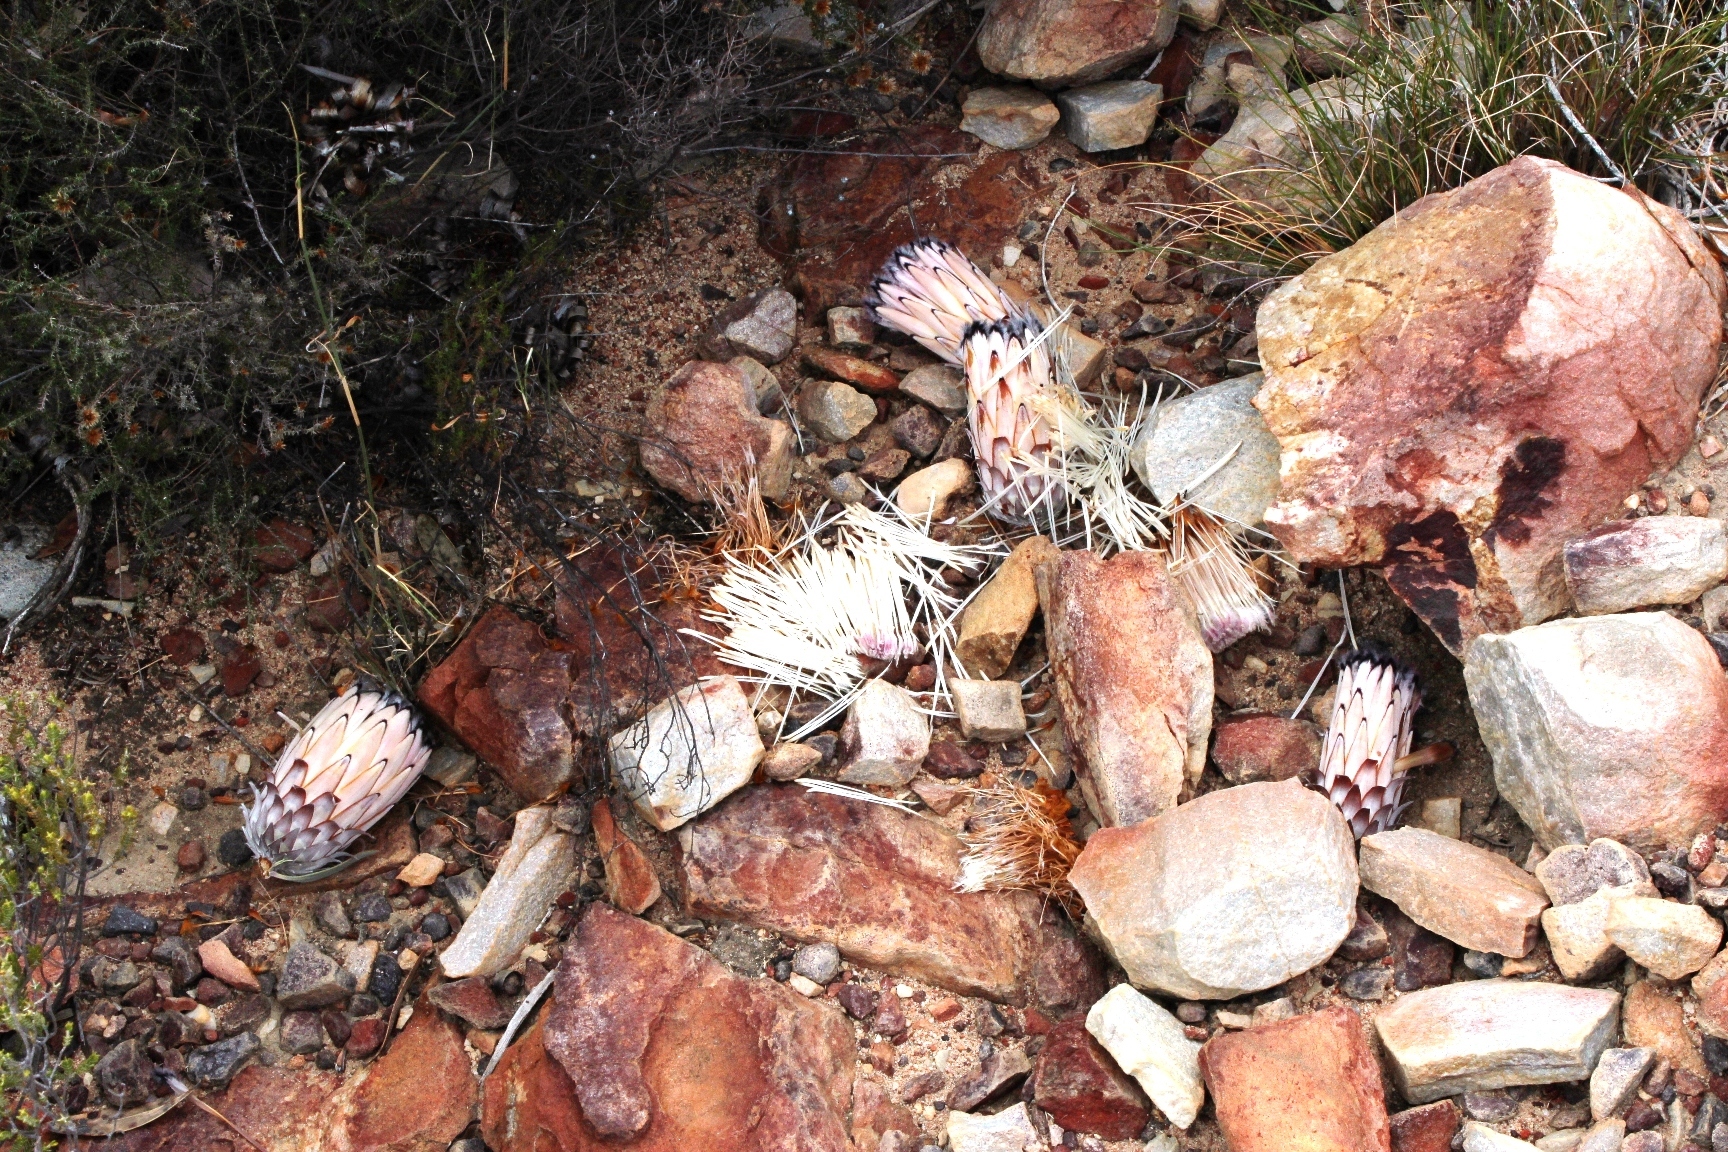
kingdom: Plantae
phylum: Tracheophyta
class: Magnoliopsida
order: Proteales
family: Proteaceae
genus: Protea
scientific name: Protea laurifolia
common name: Grey-leaf sugarbsh
